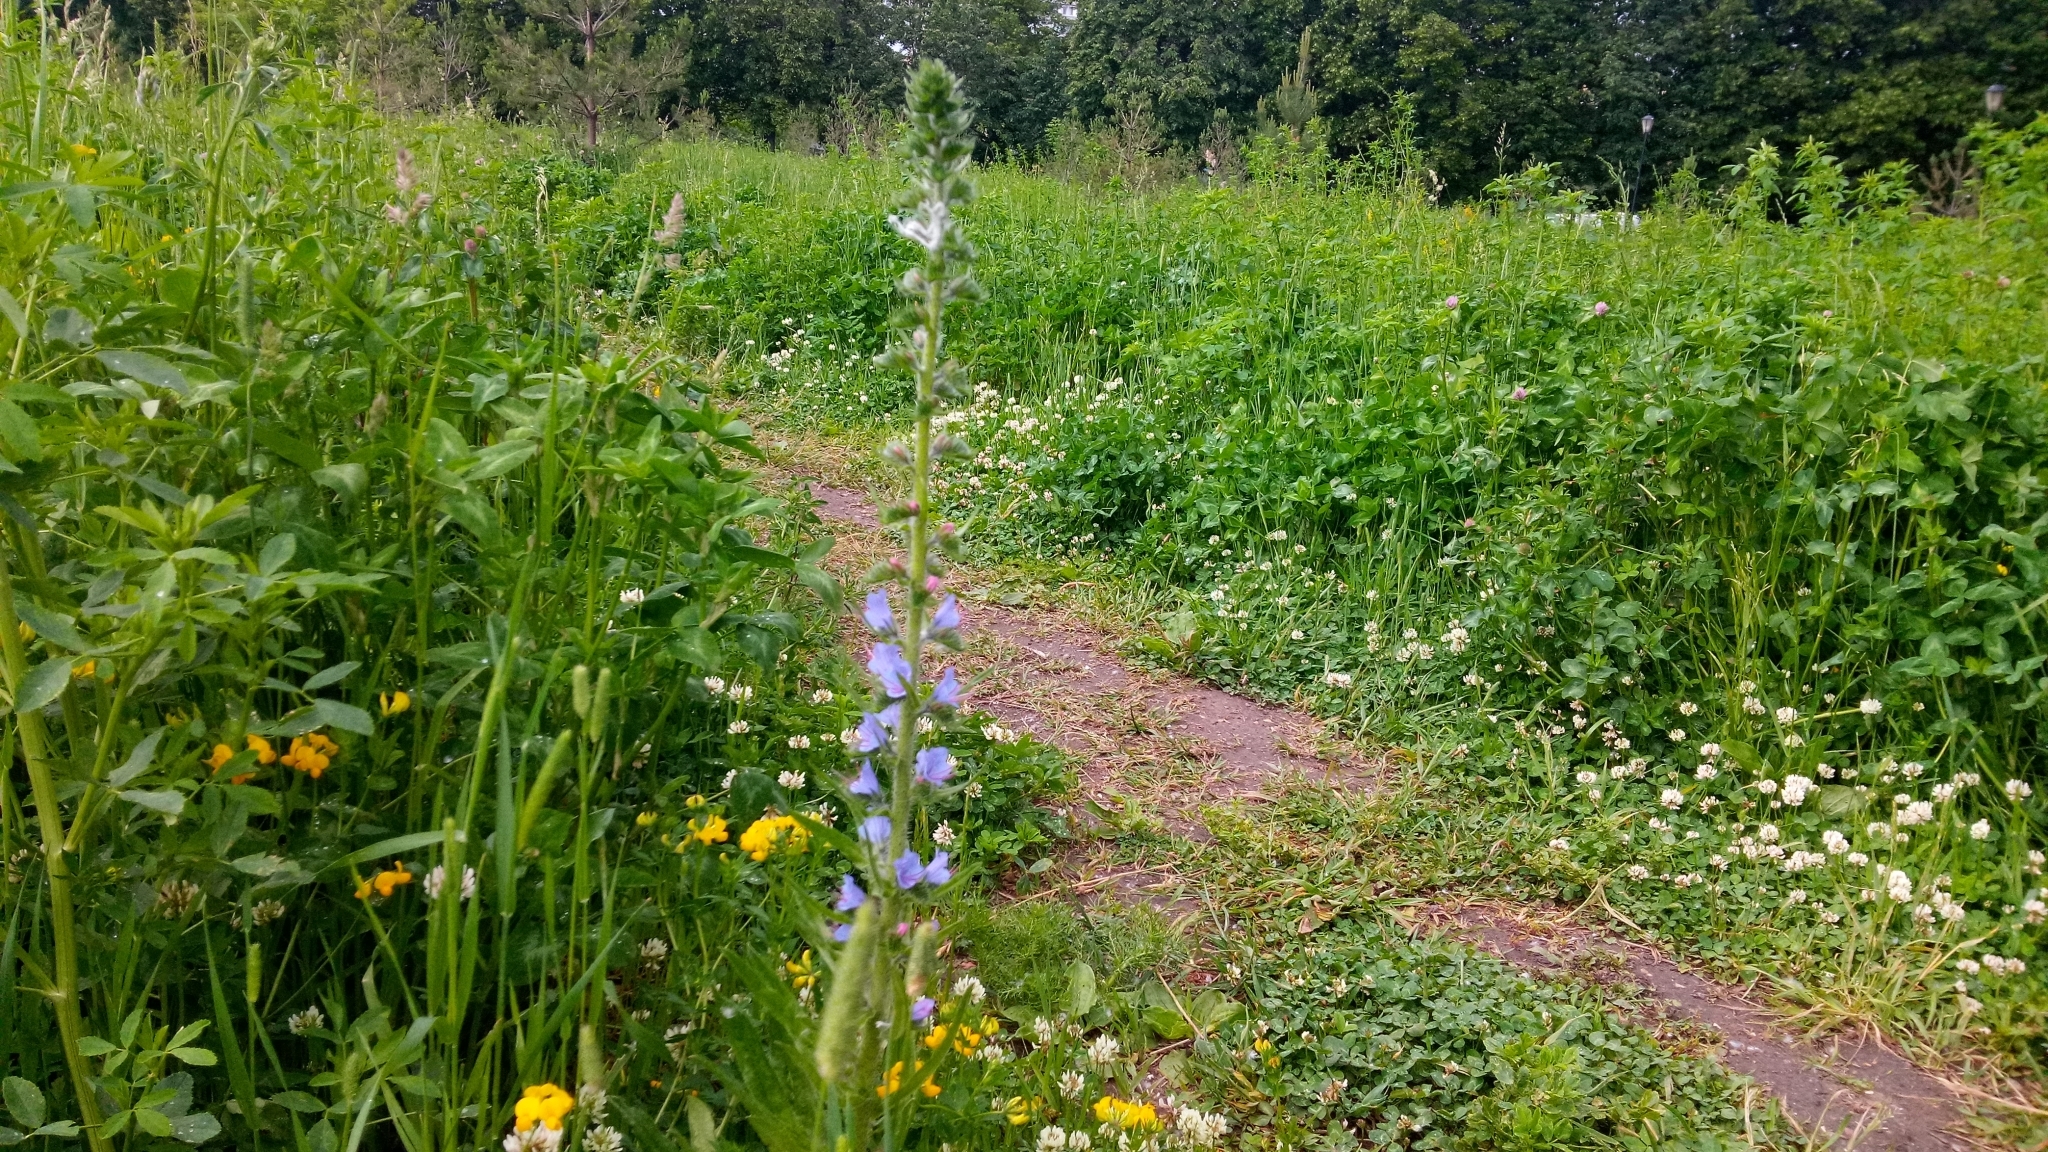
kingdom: Plantae
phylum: Tracheophyta
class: Magnoliopsida
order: Boraginales
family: Boraginaceae
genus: Echium
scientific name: Echium vulgare
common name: Common viper's bugloss
